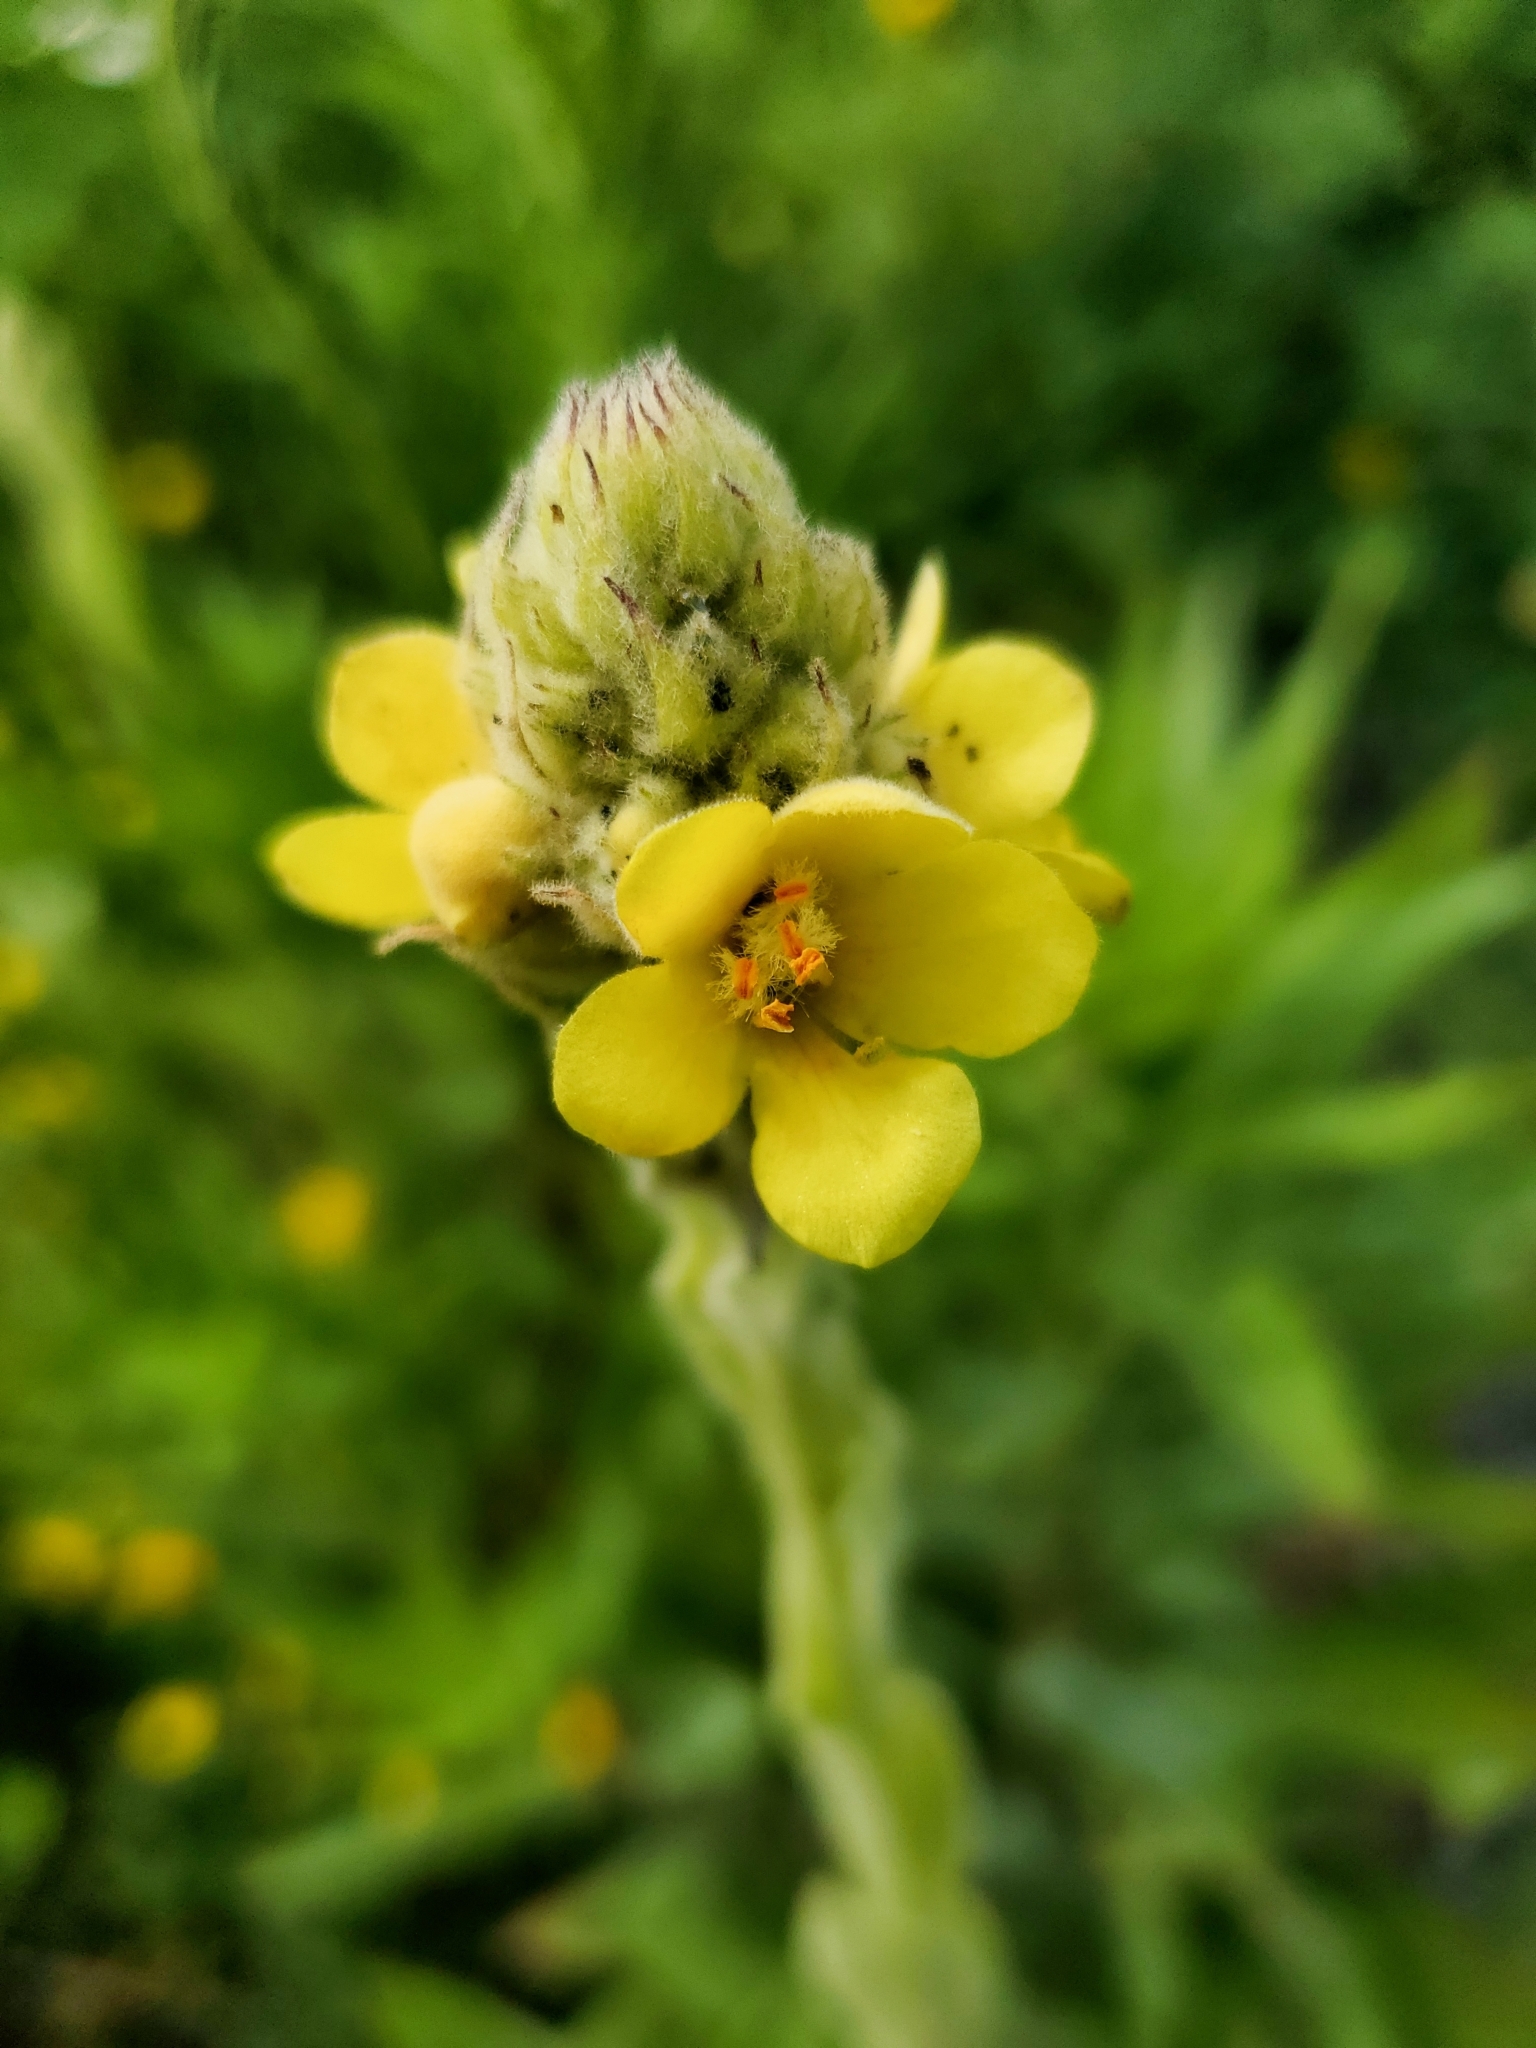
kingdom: Plantae
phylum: Tracheophyta
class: Magnoliopsida
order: Lamiales
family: Scrophulariaceae
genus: Verbascum
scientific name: Verbascum thapsus
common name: Common mullein
